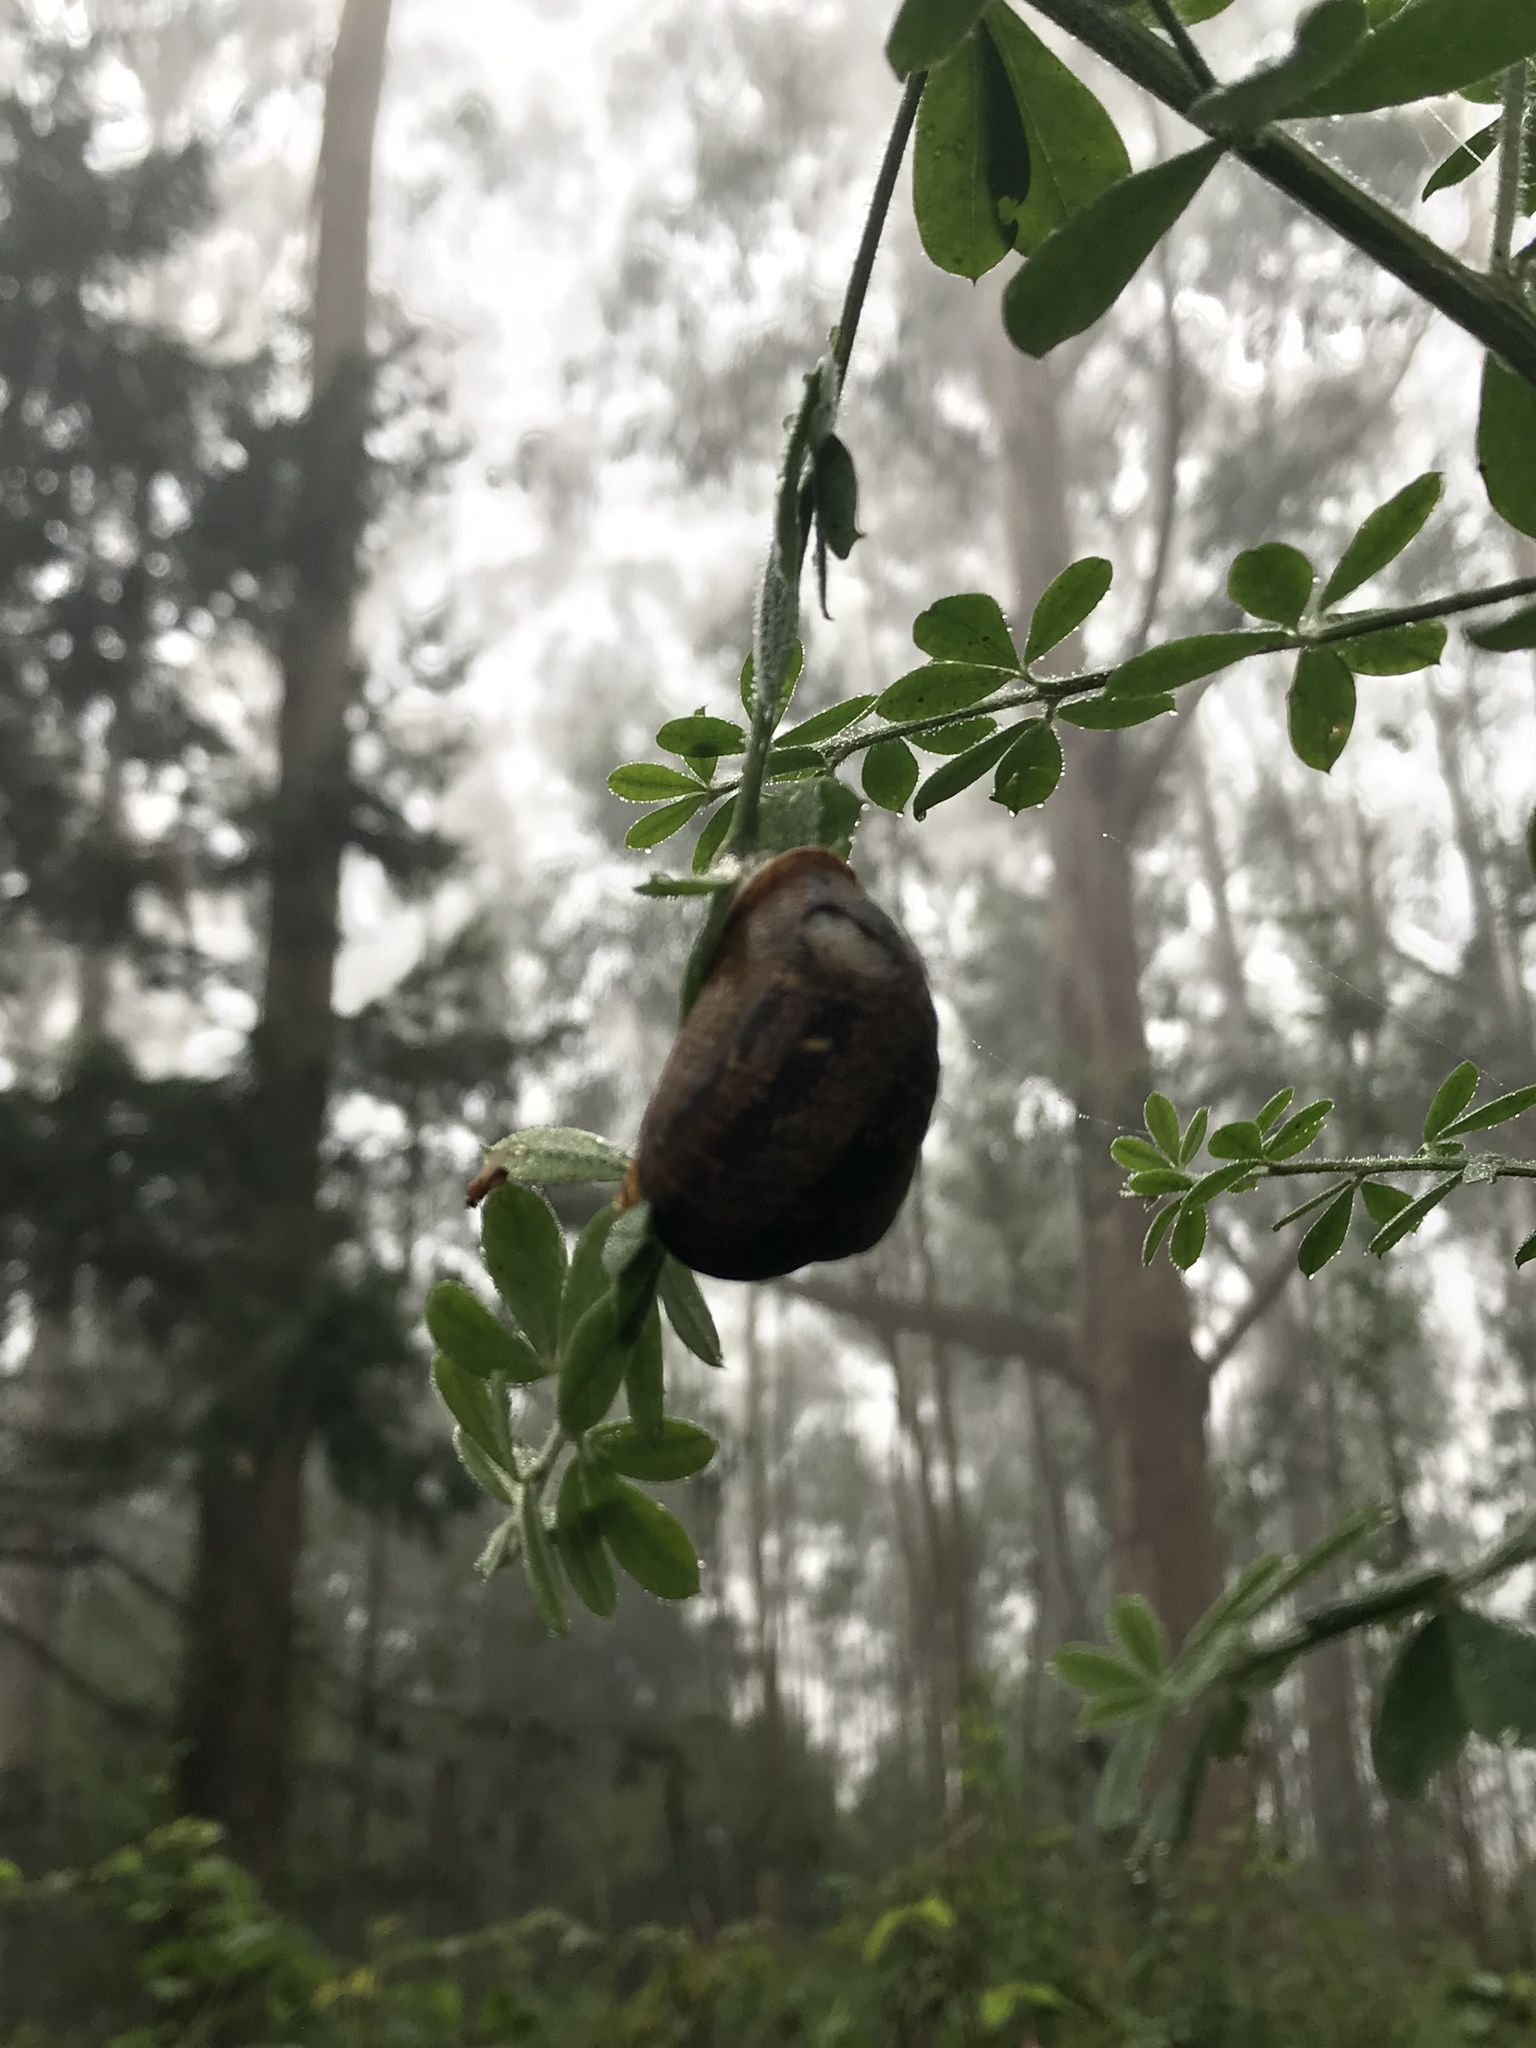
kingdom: Animalia
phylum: Mollusca
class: Gastropoda
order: Stylommatophora
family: Helicidae
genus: Cornu
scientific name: Cornu aspersum
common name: Brown garden snail
